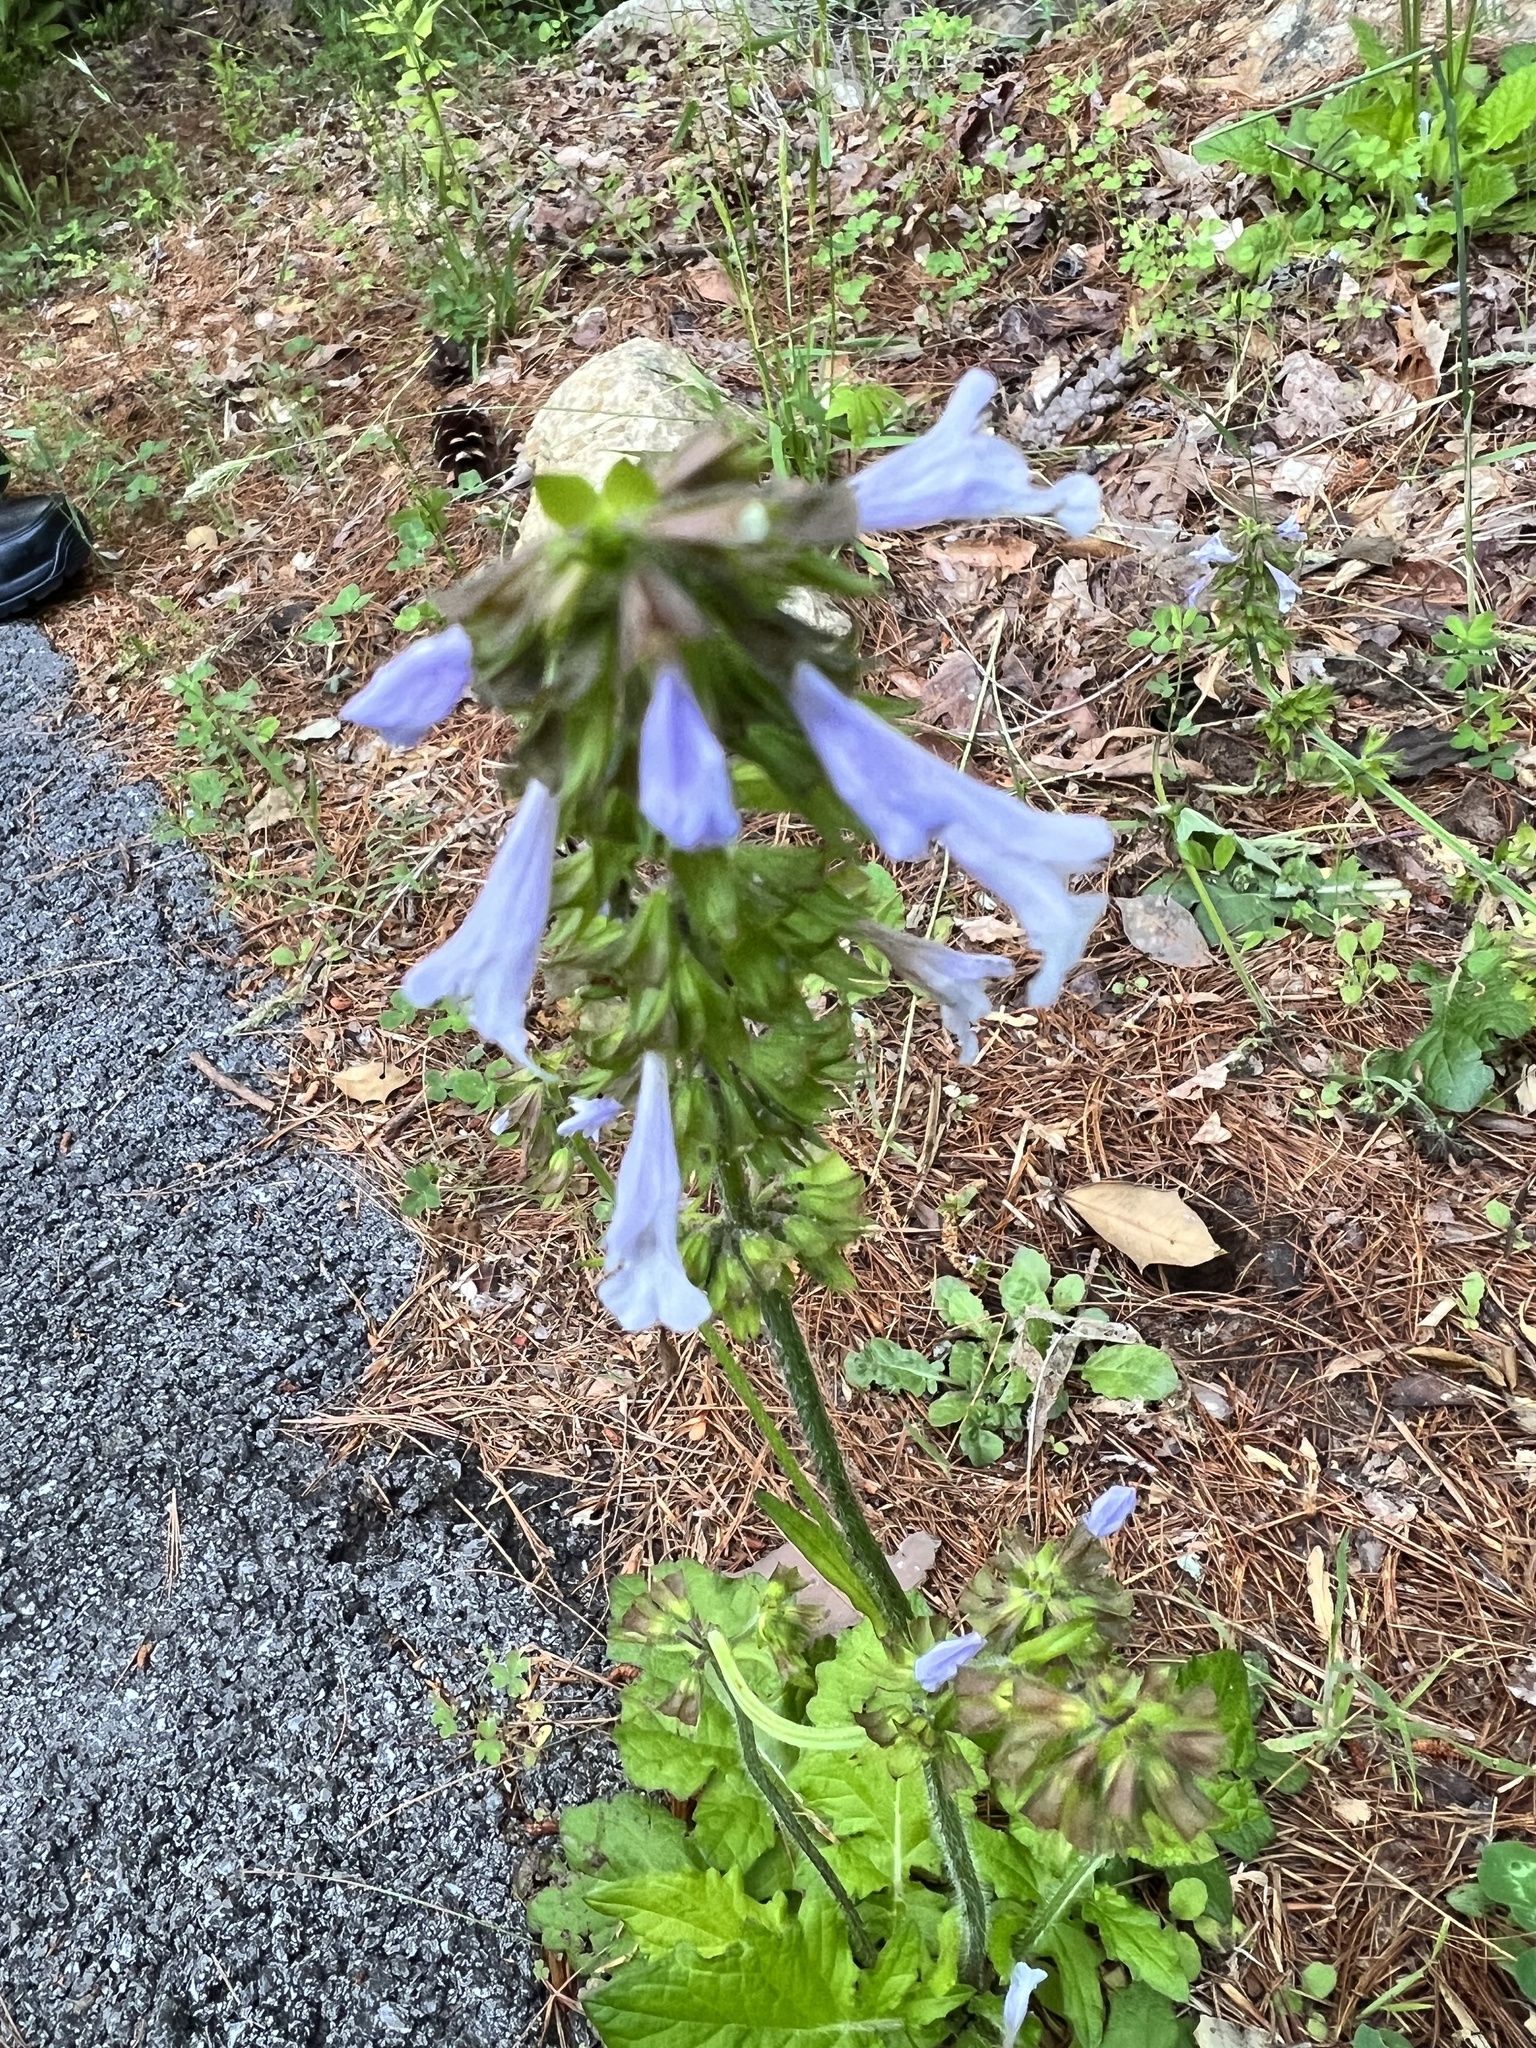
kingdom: Plantae
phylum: Tracheophyta
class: Magnoliopsida
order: Lamiales
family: Lamiaceae
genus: Salvia
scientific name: Salvia lyrata
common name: Cancerweed
